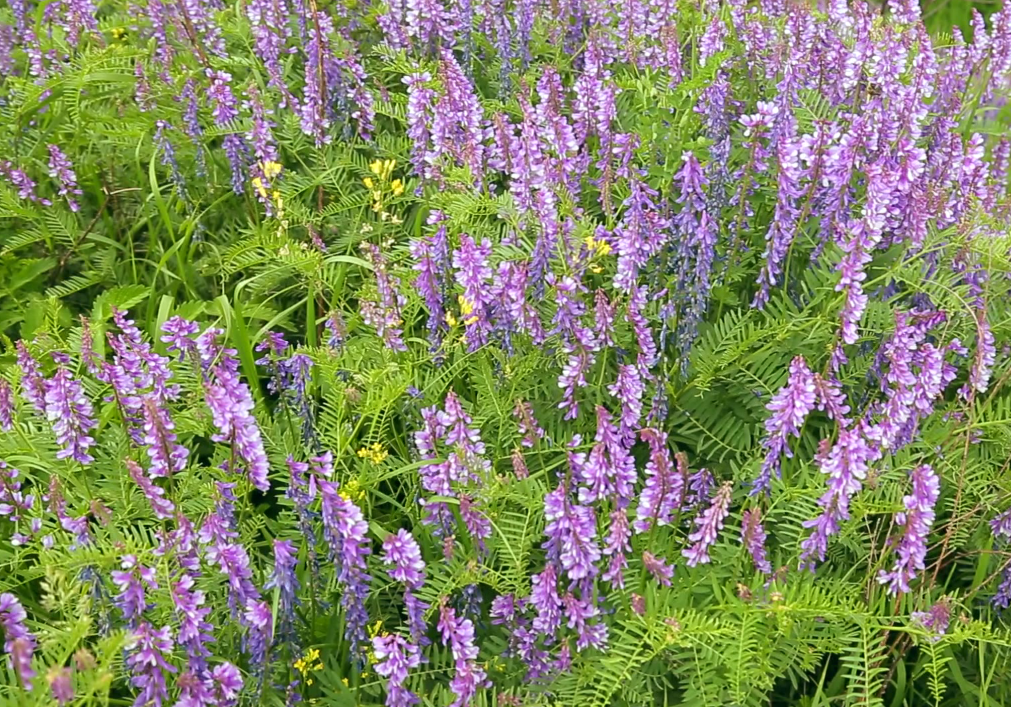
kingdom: Plantae
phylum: Tracheophyta
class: Magnoliopsida
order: Fabales
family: Fabaceae
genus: Vicia
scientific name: Vicia tenuifolia
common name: Fine-leaved vetch
